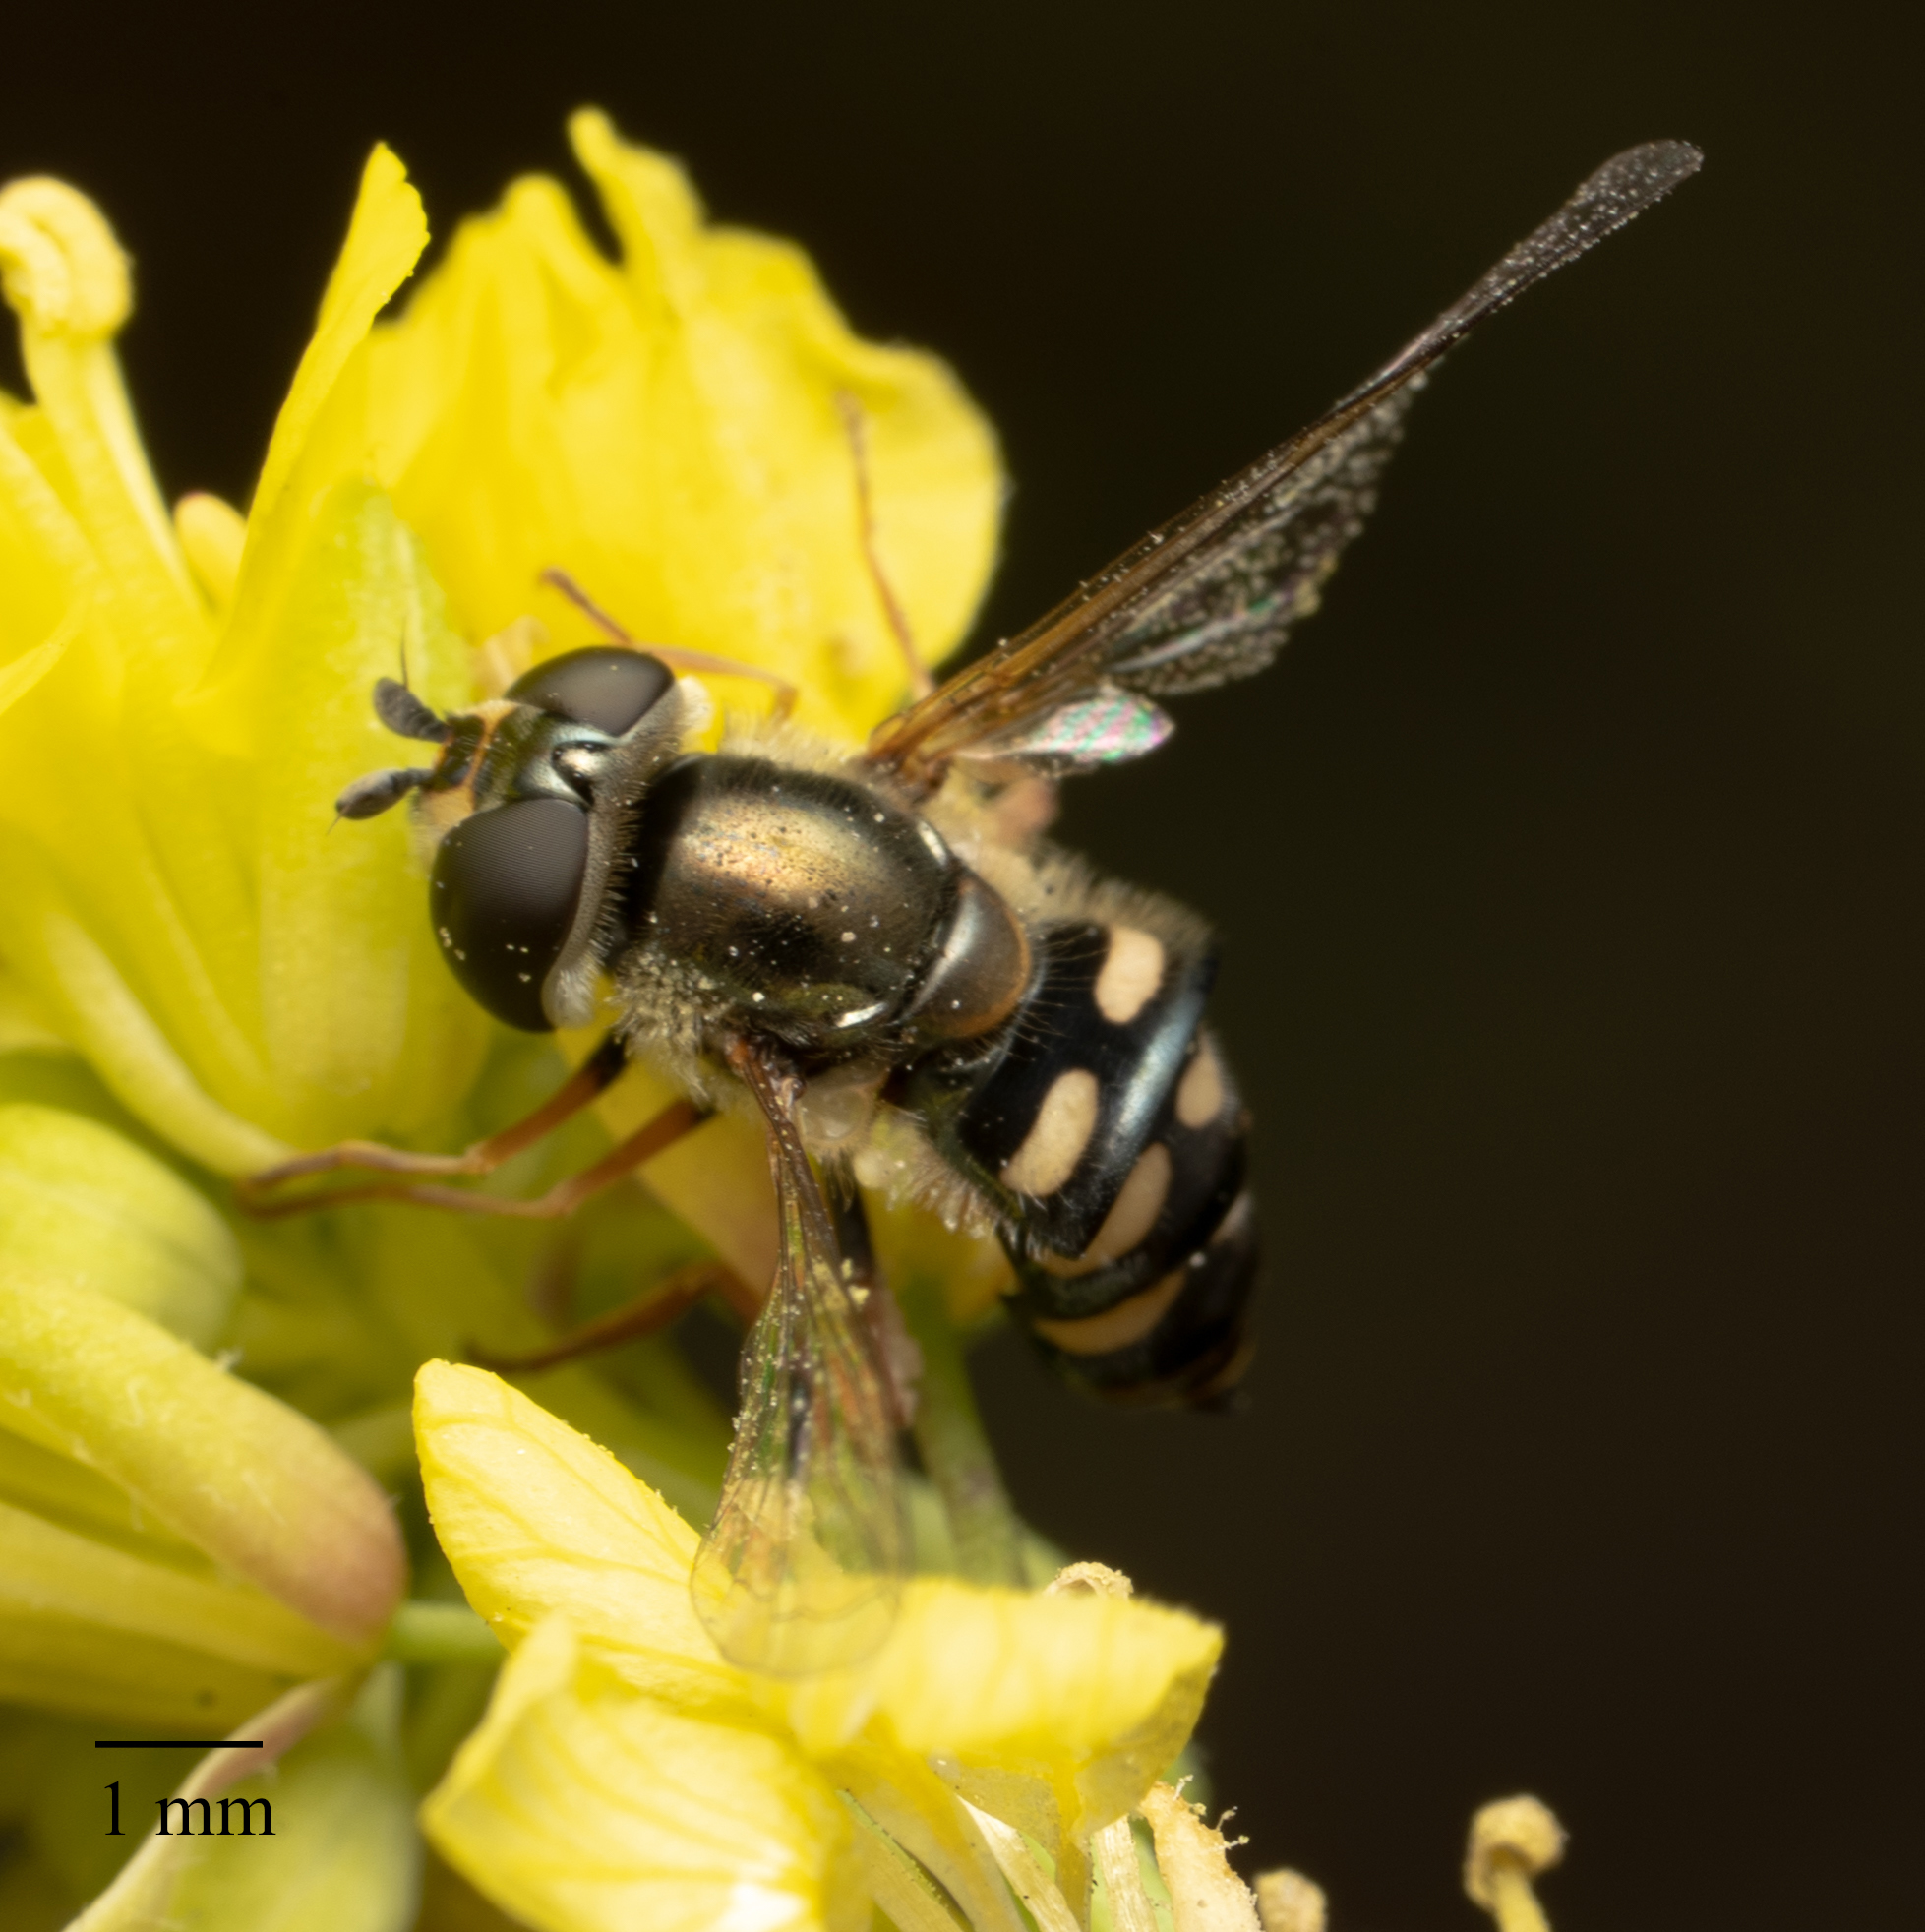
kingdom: Animalia
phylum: Arthropoda
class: Insecta
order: Diptera
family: Syrphidae
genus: Eupeodes
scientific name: Eupeodes volucris
